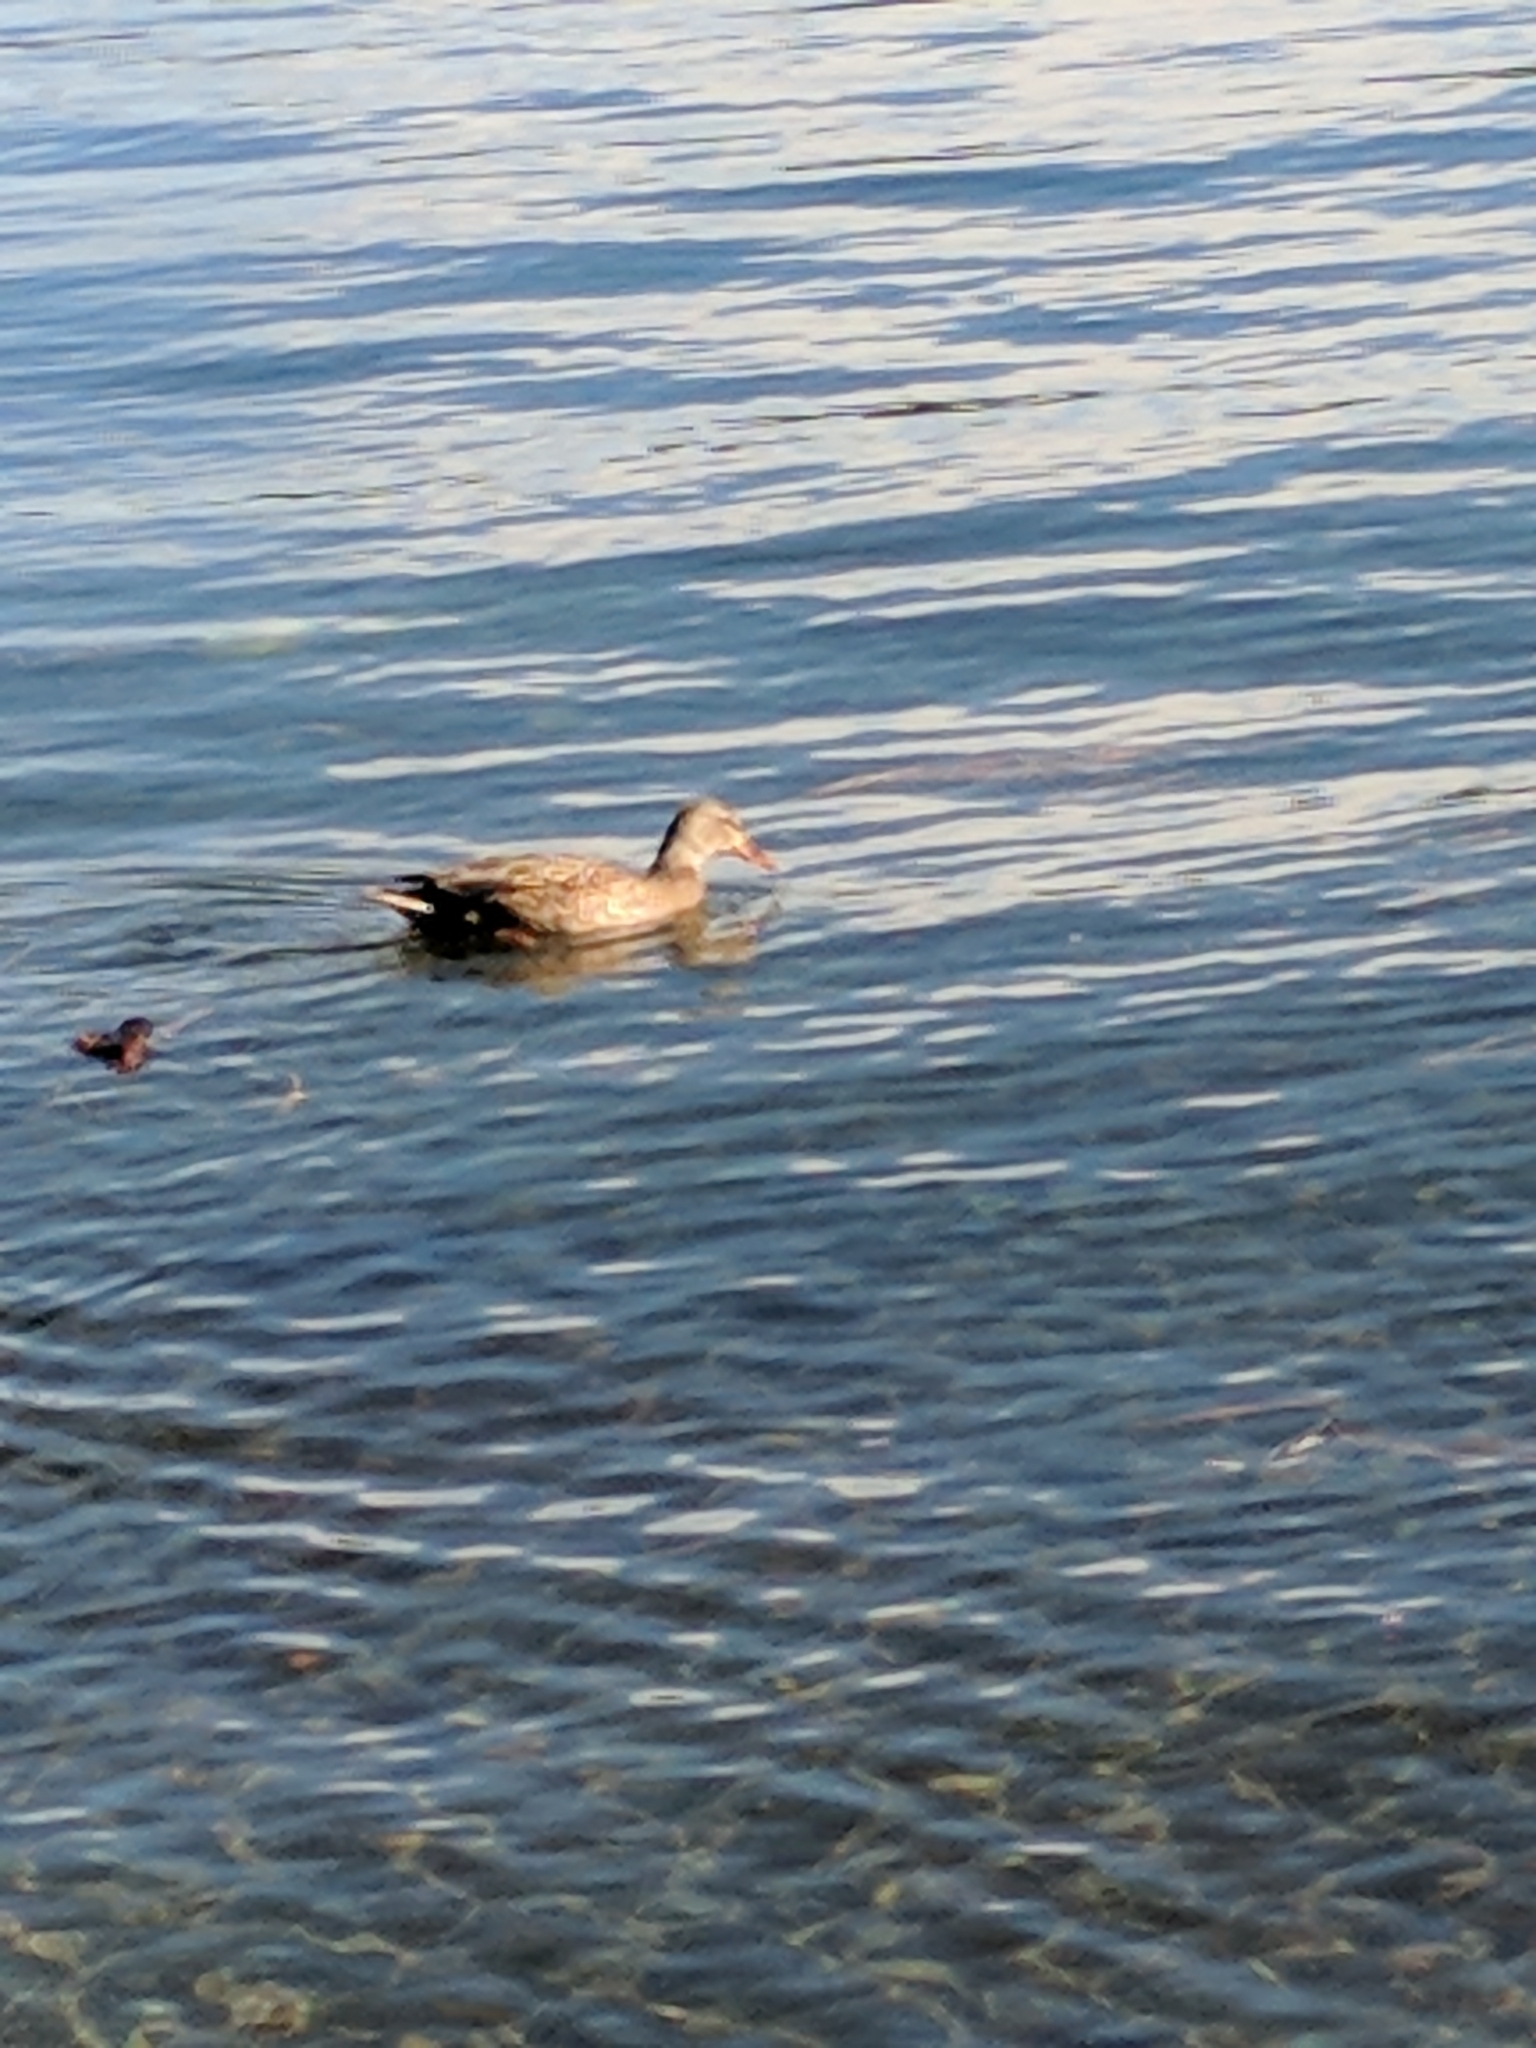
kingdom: Animalia
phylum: Chordata
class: Aves
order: Anseriformes
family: Anatidae
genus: Anas
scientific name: Anas platyrhynchos
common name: Mallard
